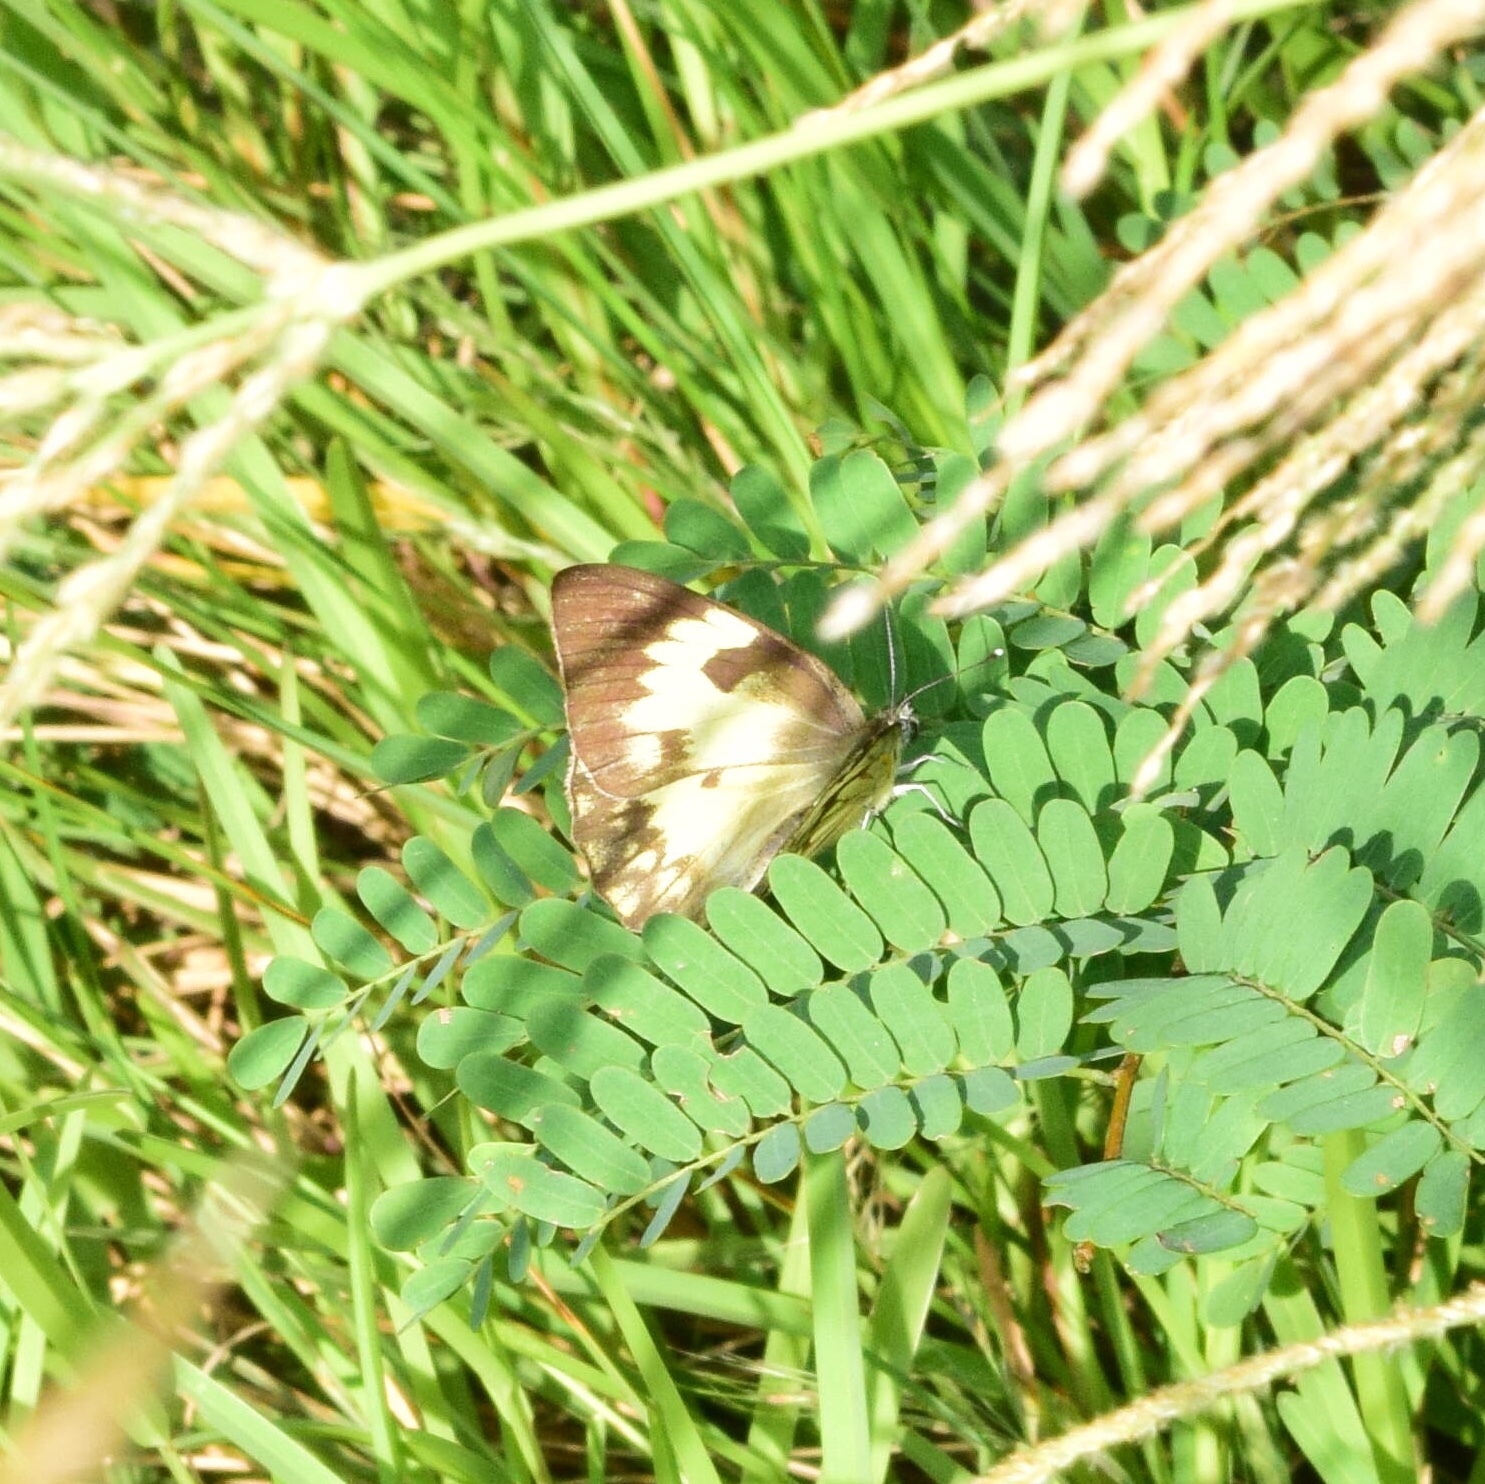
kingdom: Animalia
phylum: Arthropoda
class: Insecta
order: Lepidoptera
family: Pieridae
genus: Belenois
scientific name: Belenois gidica
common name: Pointed caper white
